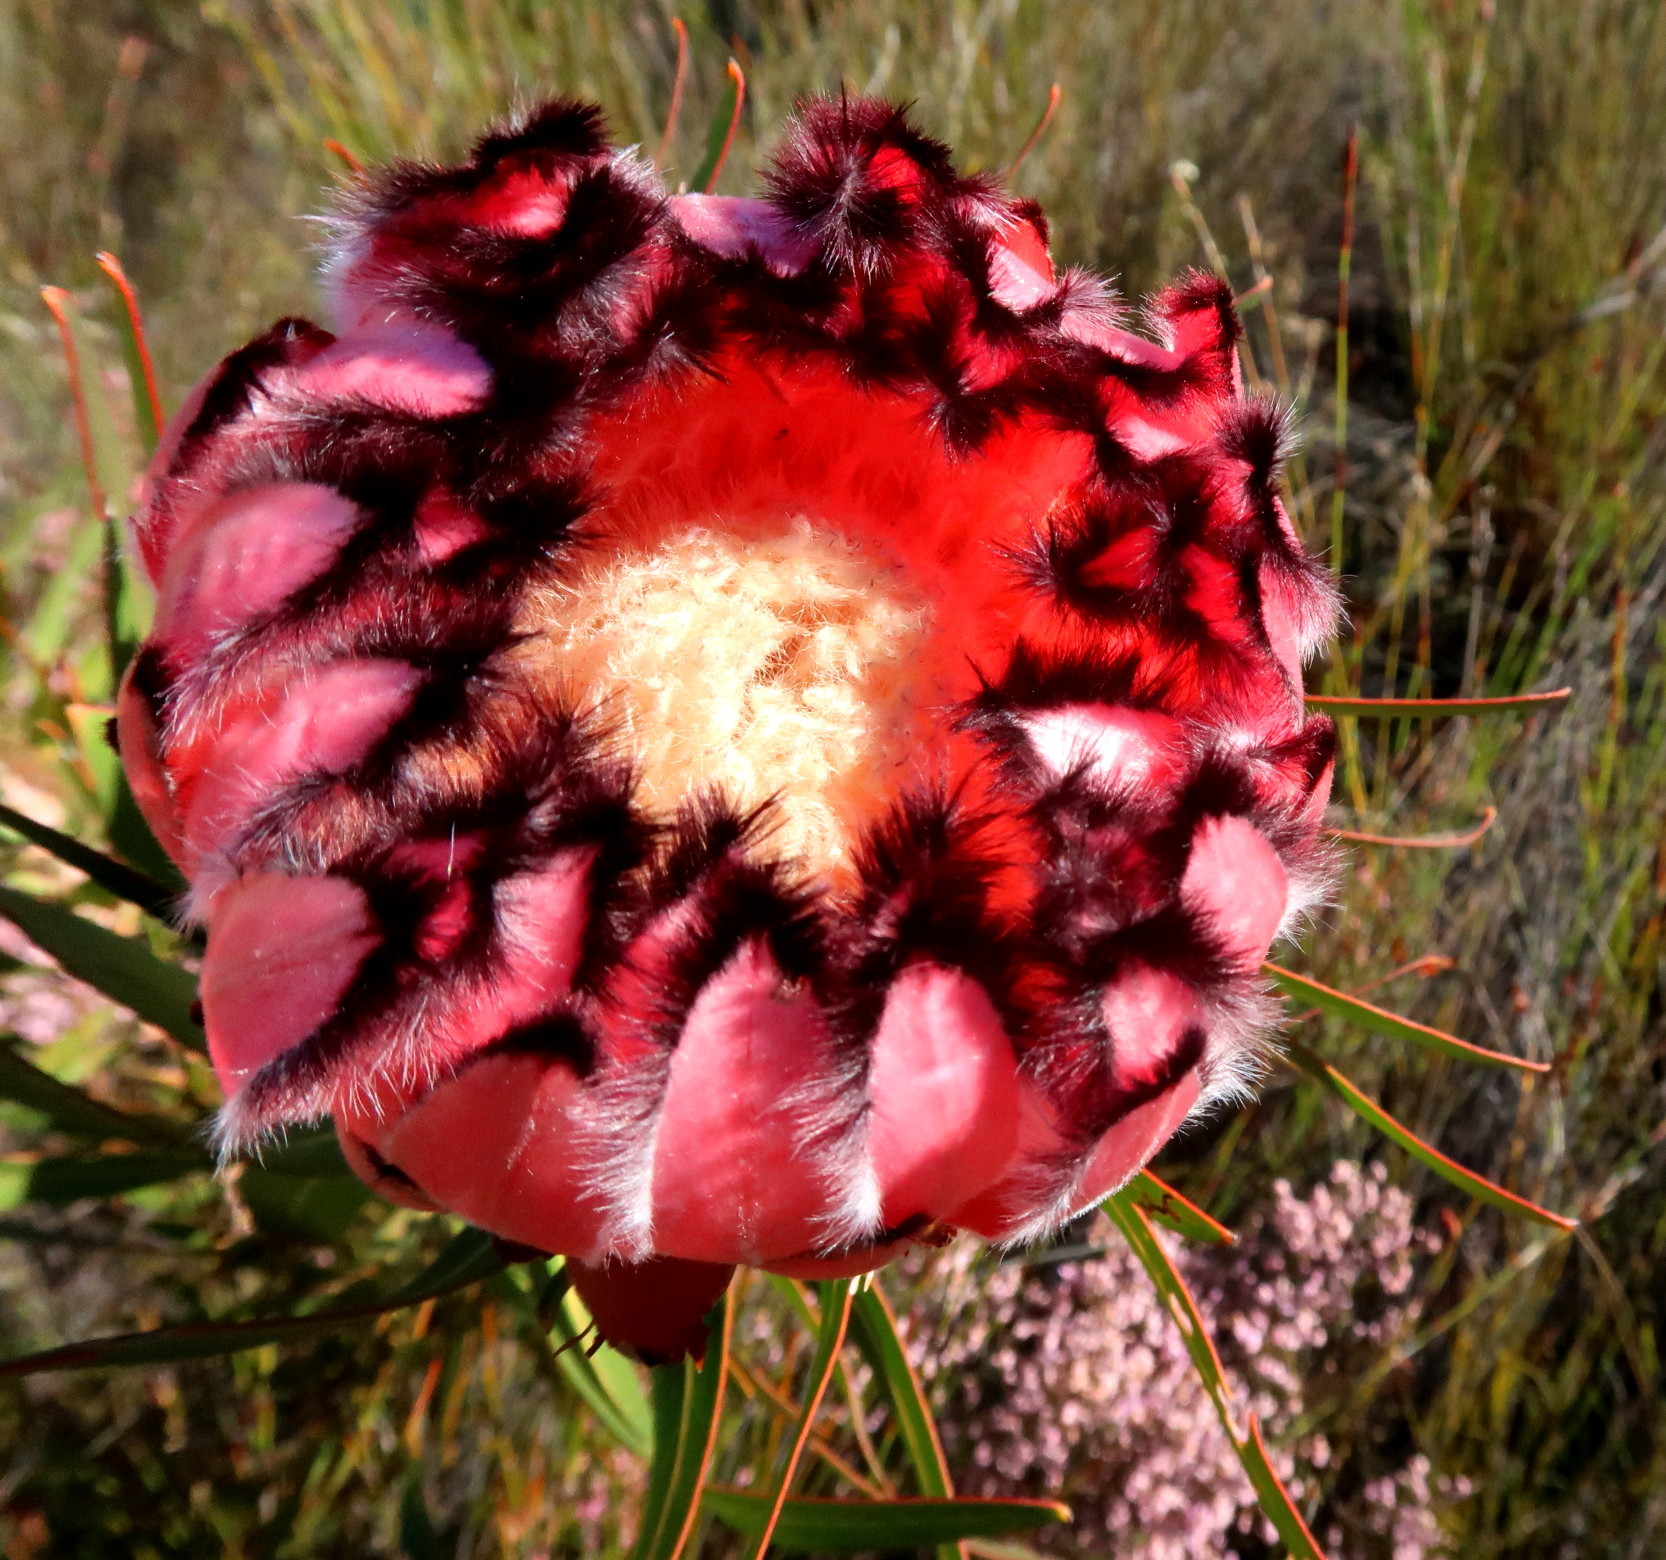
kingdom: Plantae
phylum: Tracheophyta
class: Magnoliopsida
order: Proteales
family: Proteaceae
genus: Protea
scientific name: Protea neriifolia
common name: Blue sugarbush
